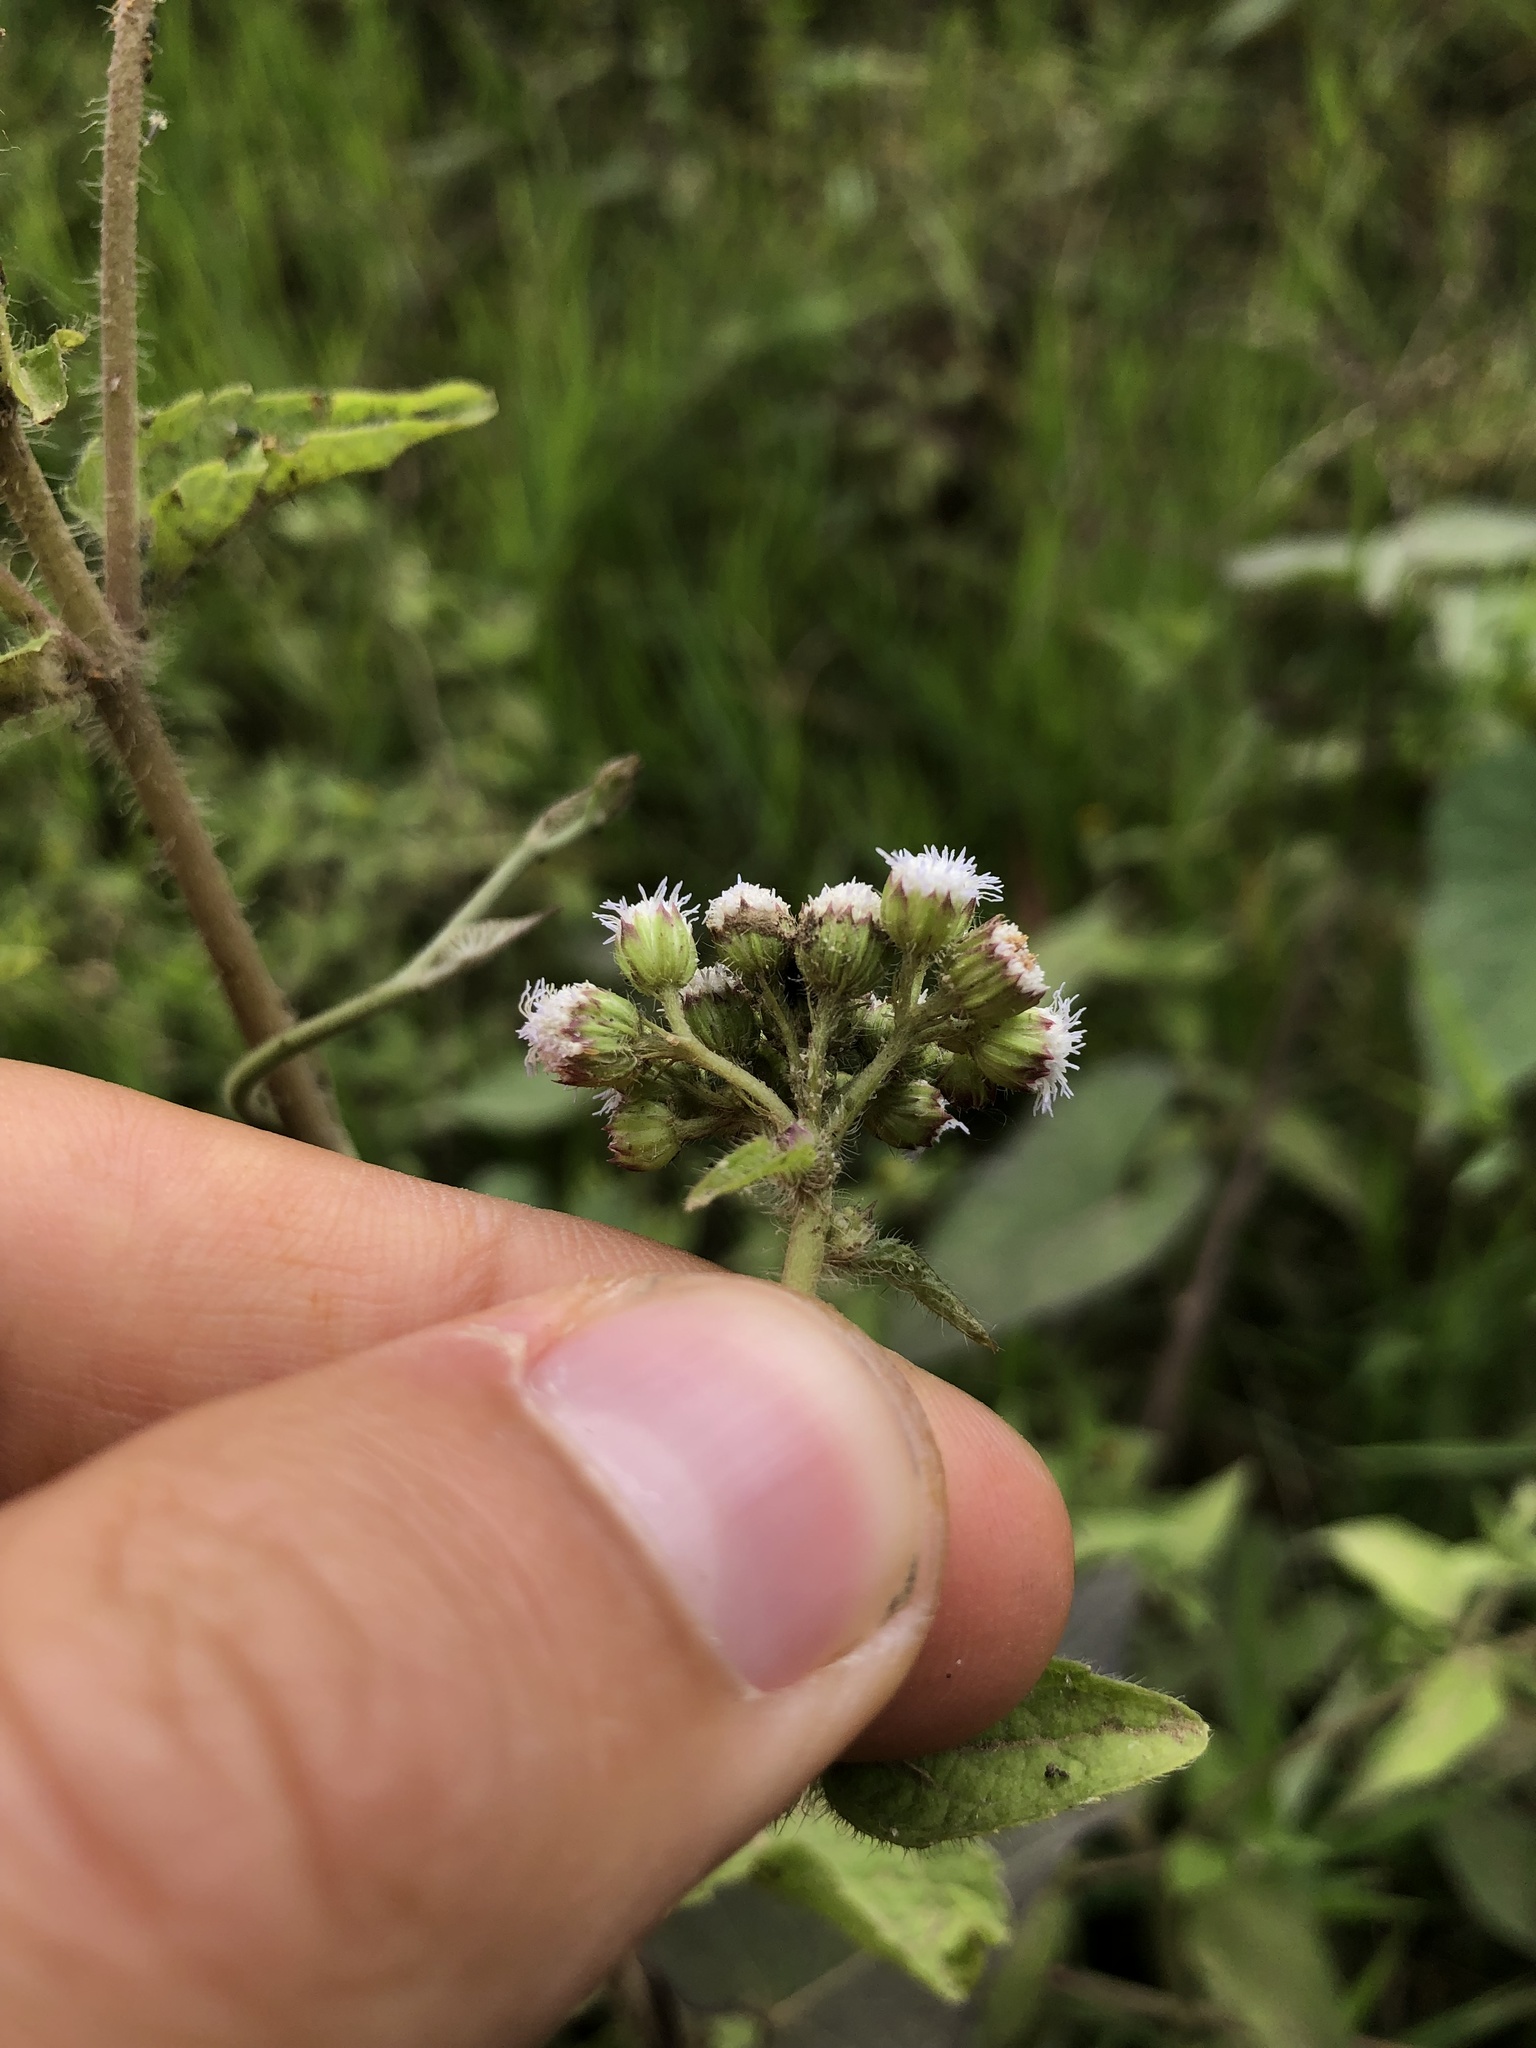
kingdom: Plantae
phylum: Tracheophyta
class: Magnoliopsida
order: Asterales
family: Asteraceae
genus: Ageratum
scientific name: Ageratum conyzoides
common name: Tropical whiteweed
